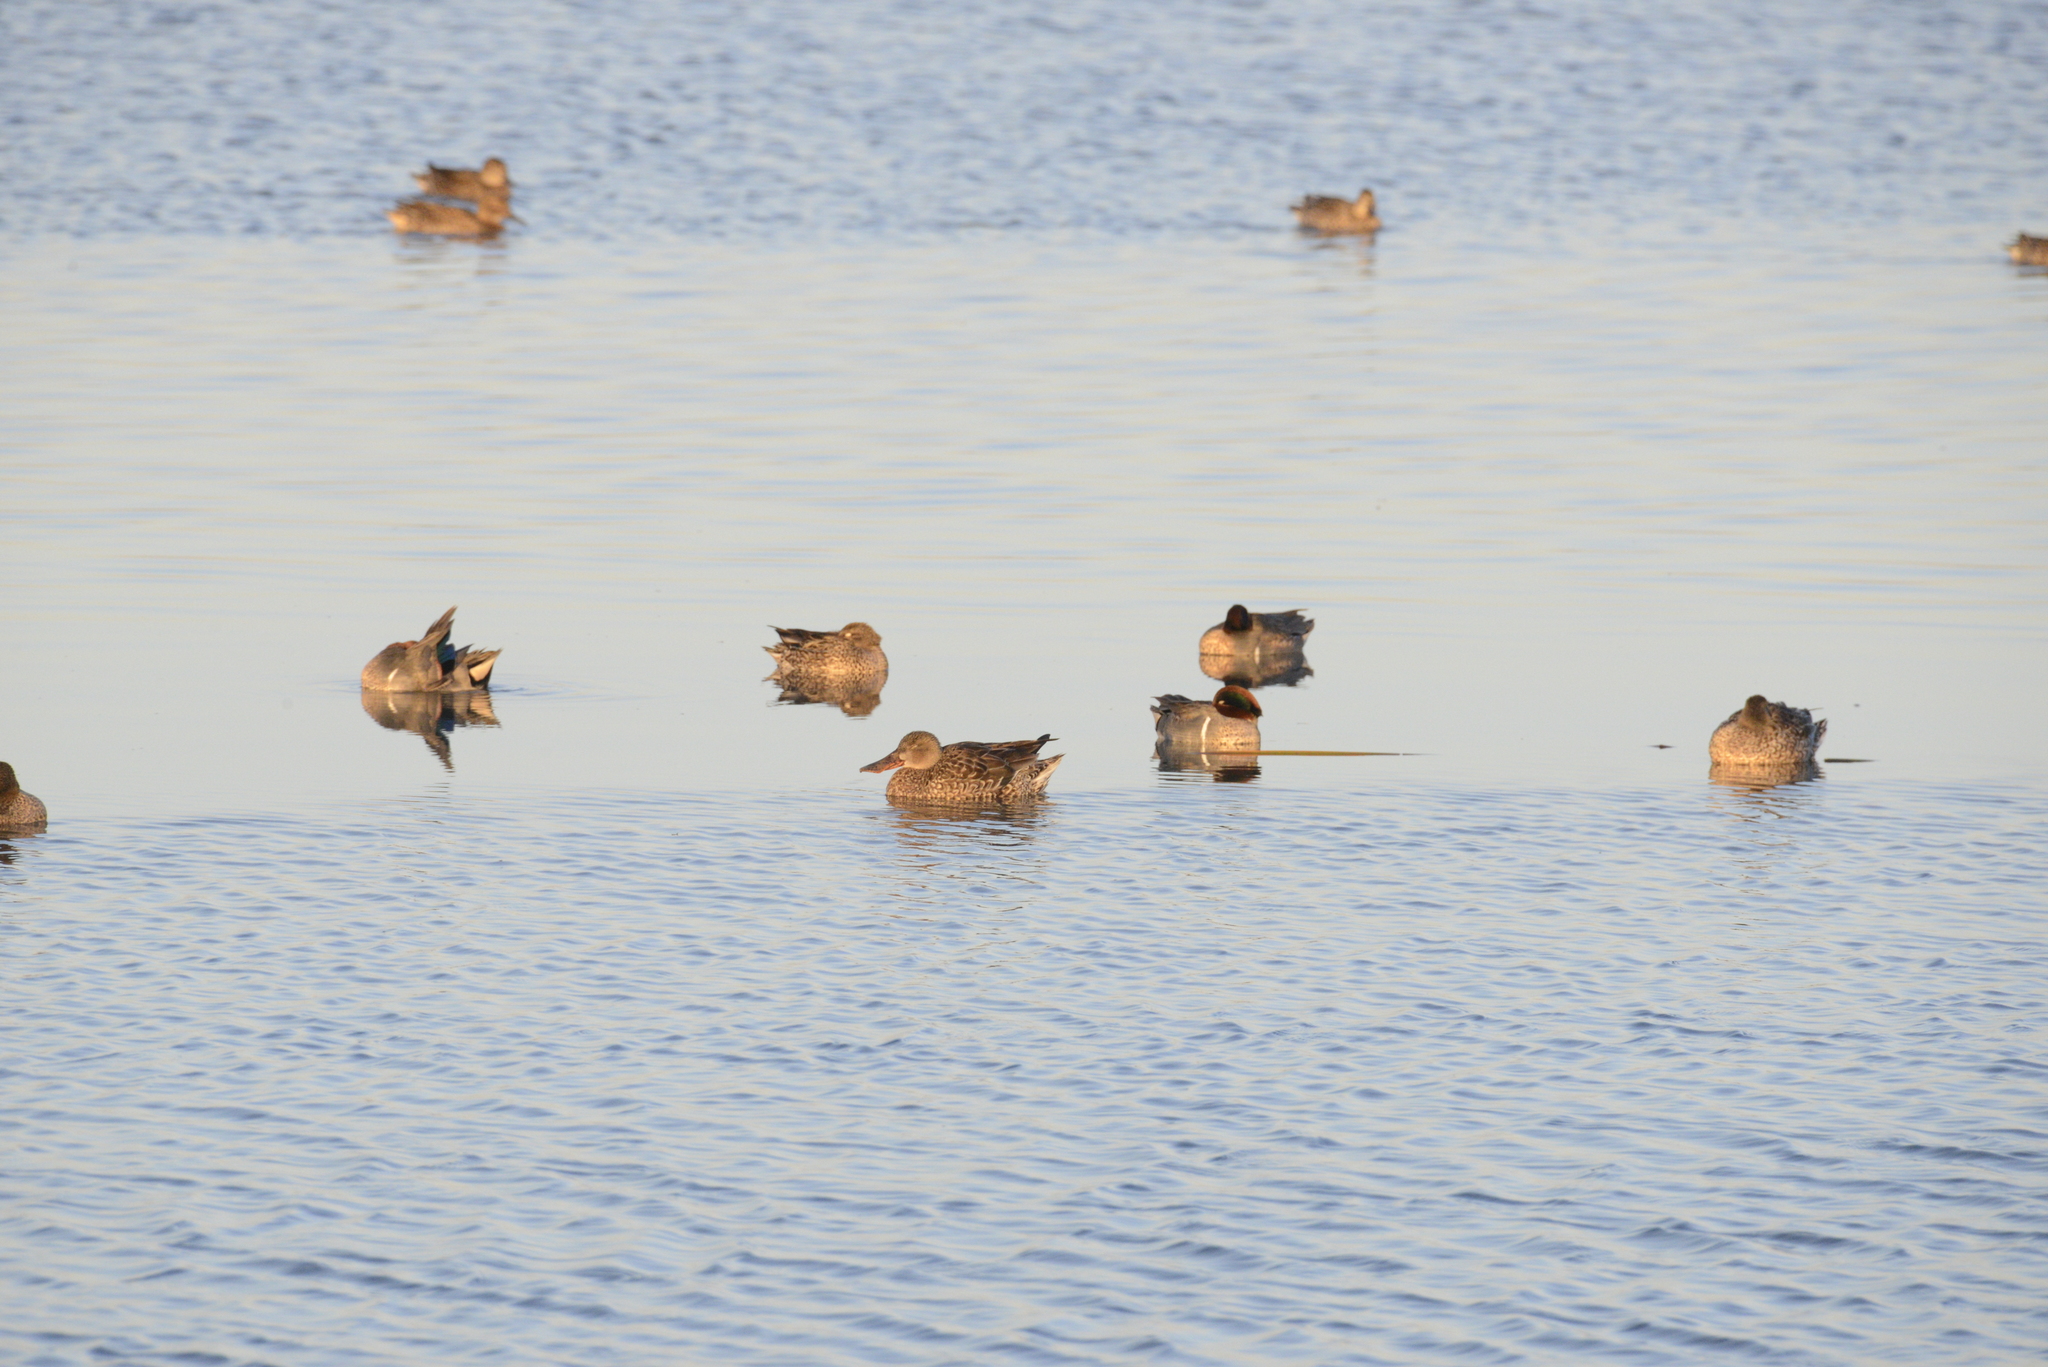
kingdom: Animalia
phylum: Chordata
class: Aves
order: Anseriformes
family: Anatidae
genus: Spatula
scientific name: Spatula clypeata
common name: Northern shoveler
